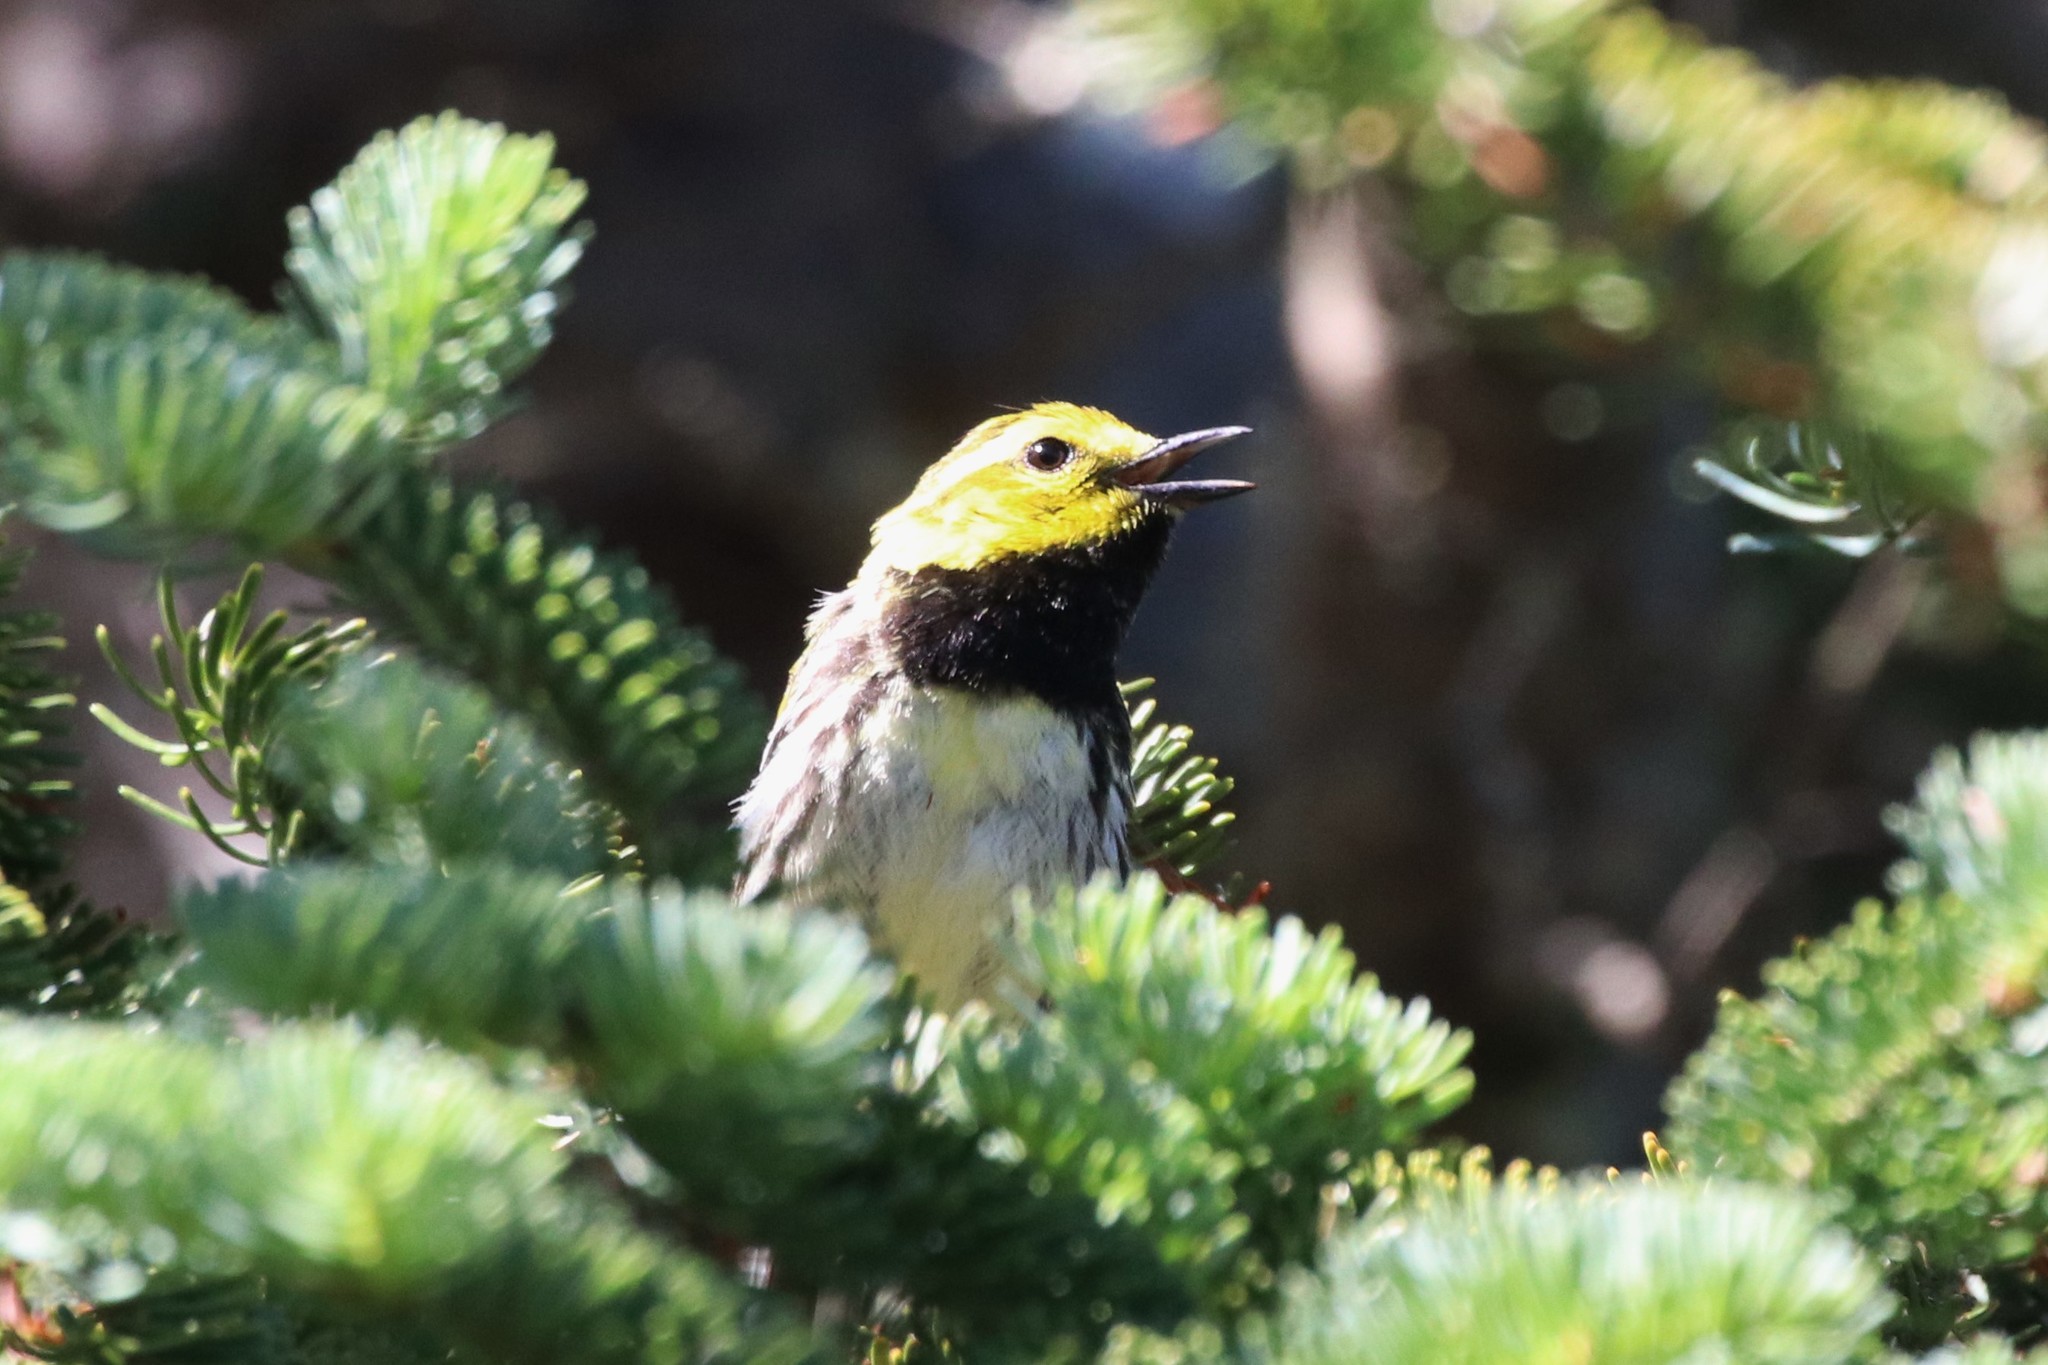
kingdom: Animalia
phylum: Chordata
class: Aves
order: Passeriformes
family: Parulidae
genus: Setophaga
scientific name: Setophaga virens
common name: Black-throated green warbler
